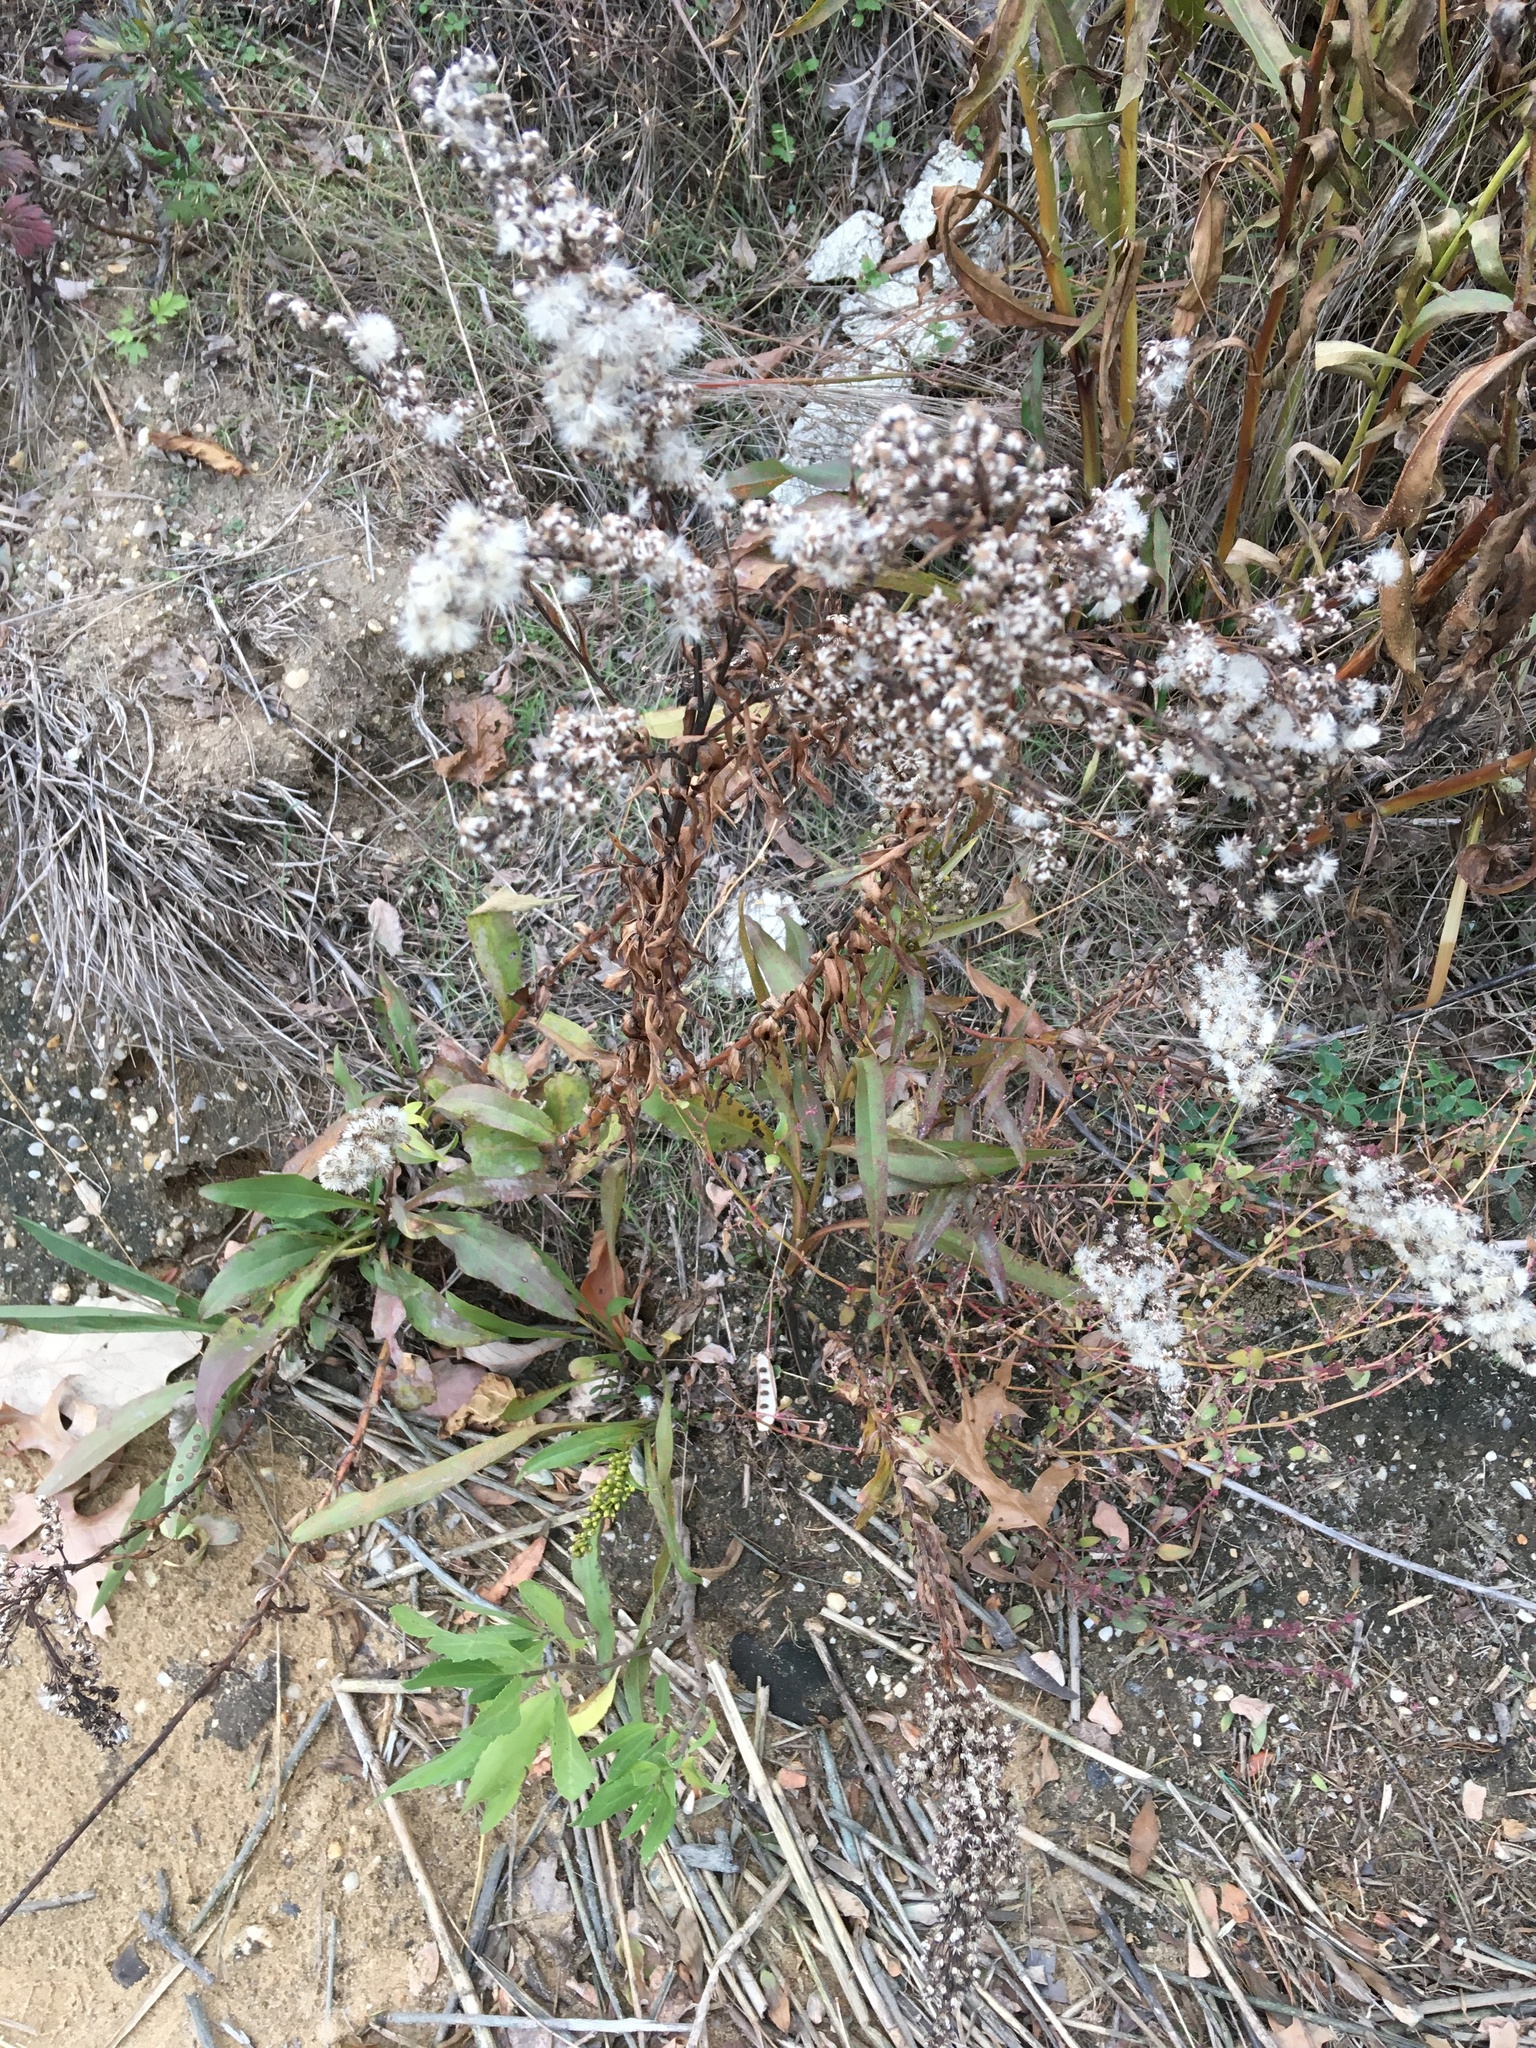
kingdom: Plantae
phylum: Tracheophyta
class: Magnoliopsida
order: Asterales
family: Asteraceae
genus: Solidago
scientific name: Solidago sempervirens
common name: Salt-marsh goldenrod
